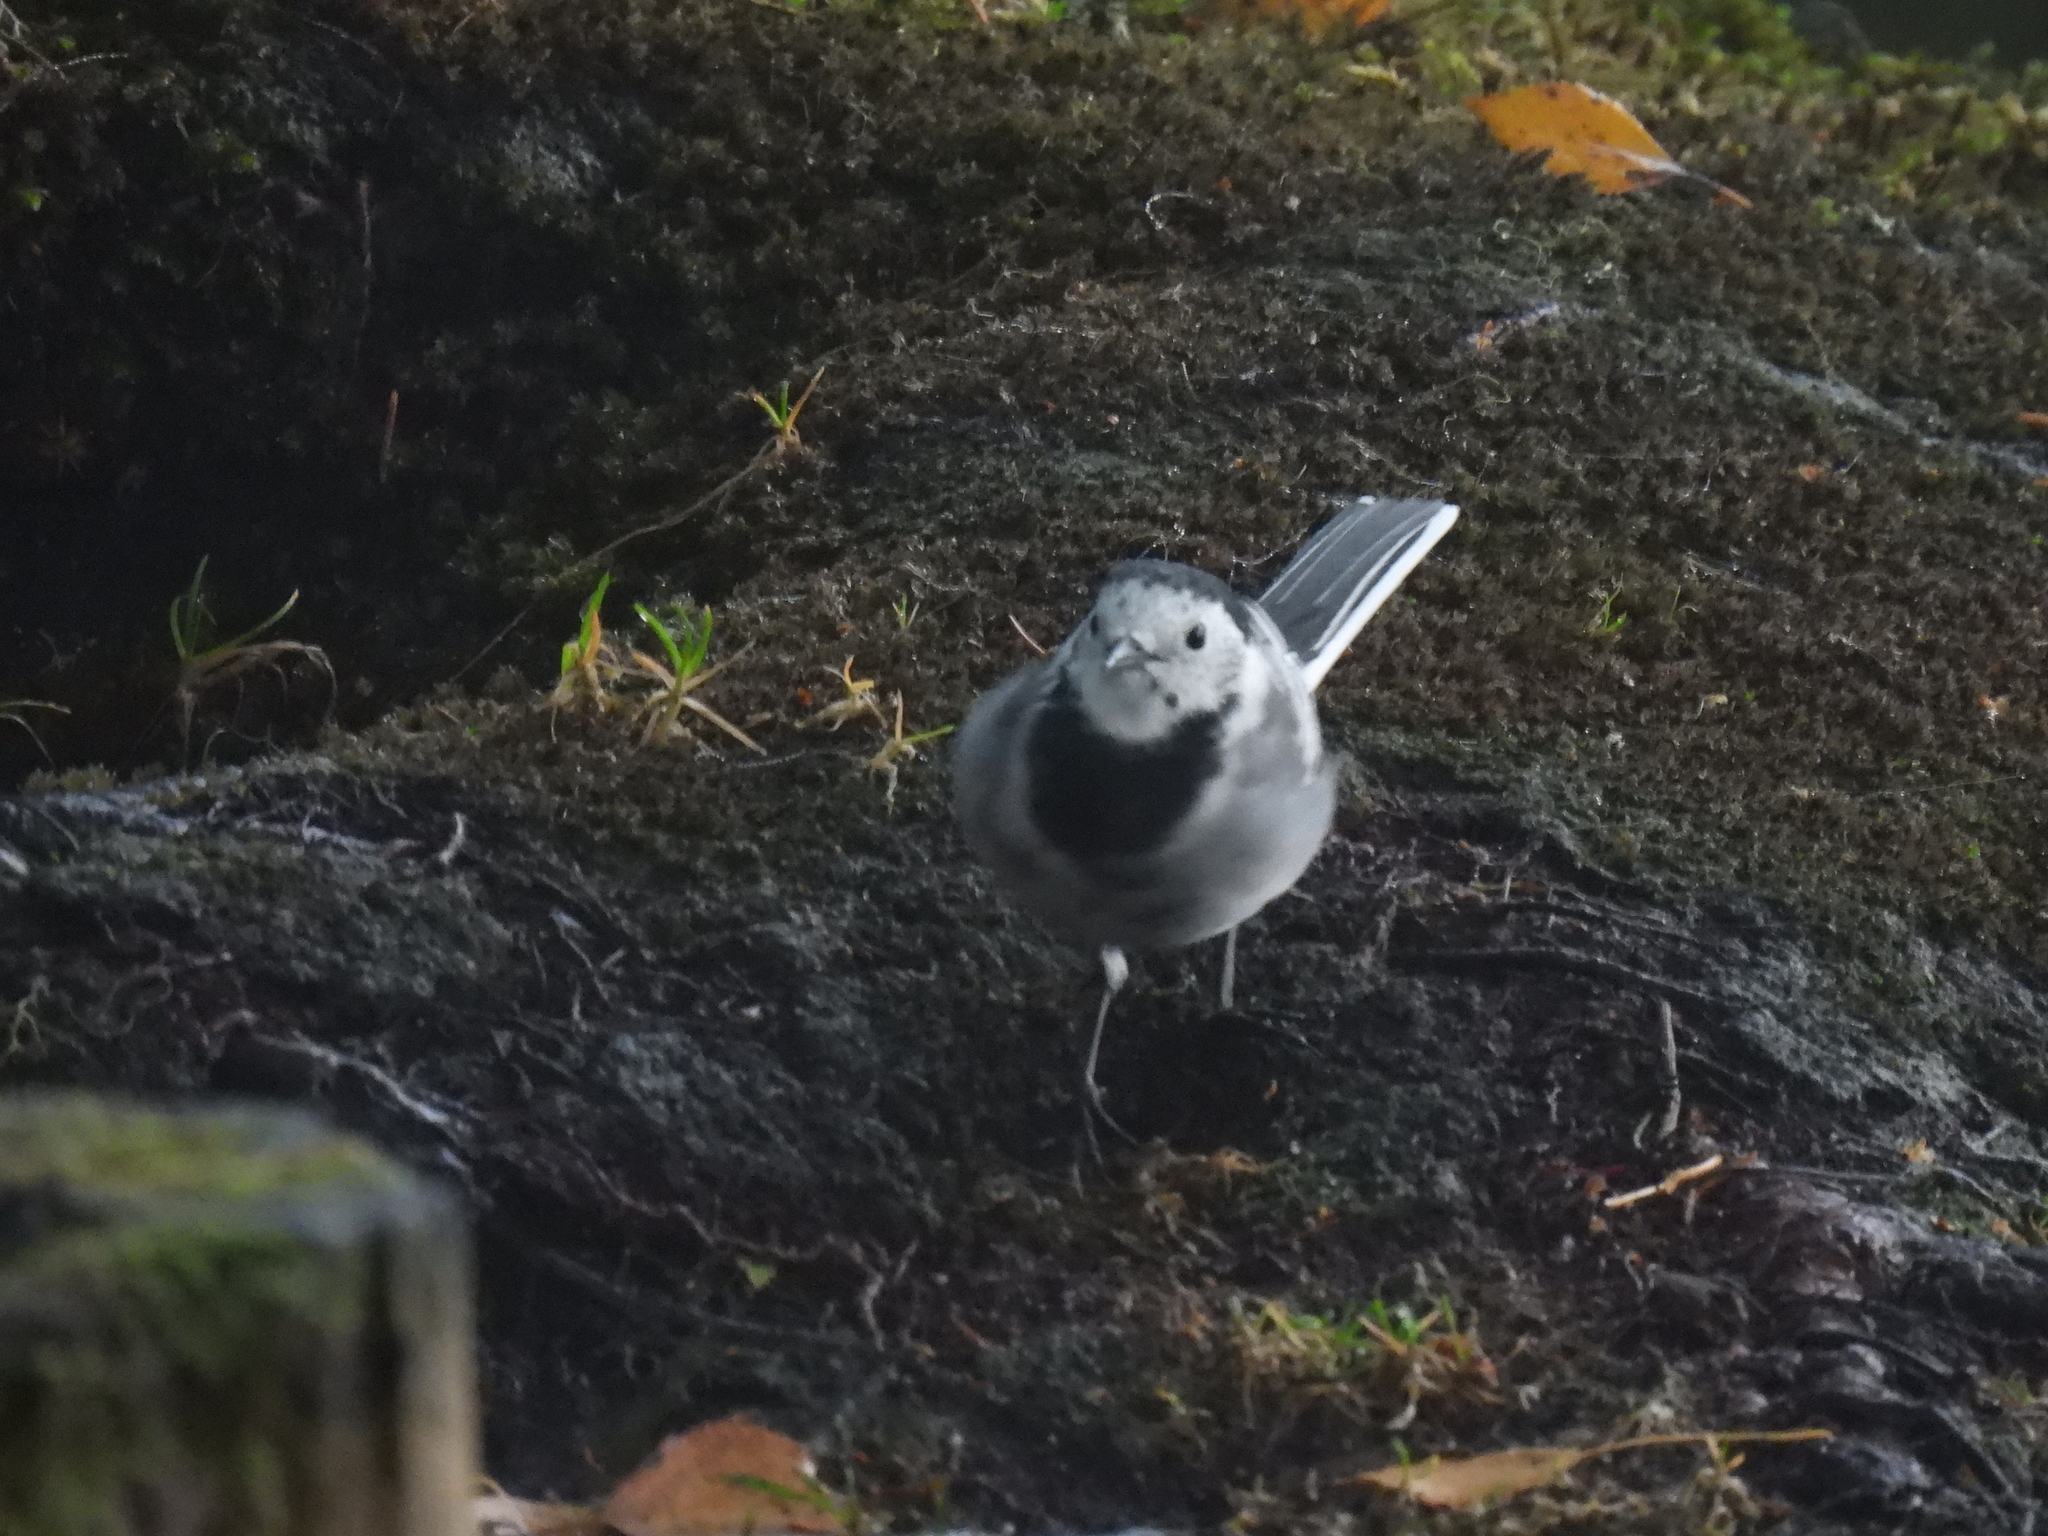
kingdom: Animalia
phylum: Chordata
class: Aves
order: Passeriformes
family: Motacillidae
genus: Motacilla
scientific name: Motacilla alba
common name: White wagtail
